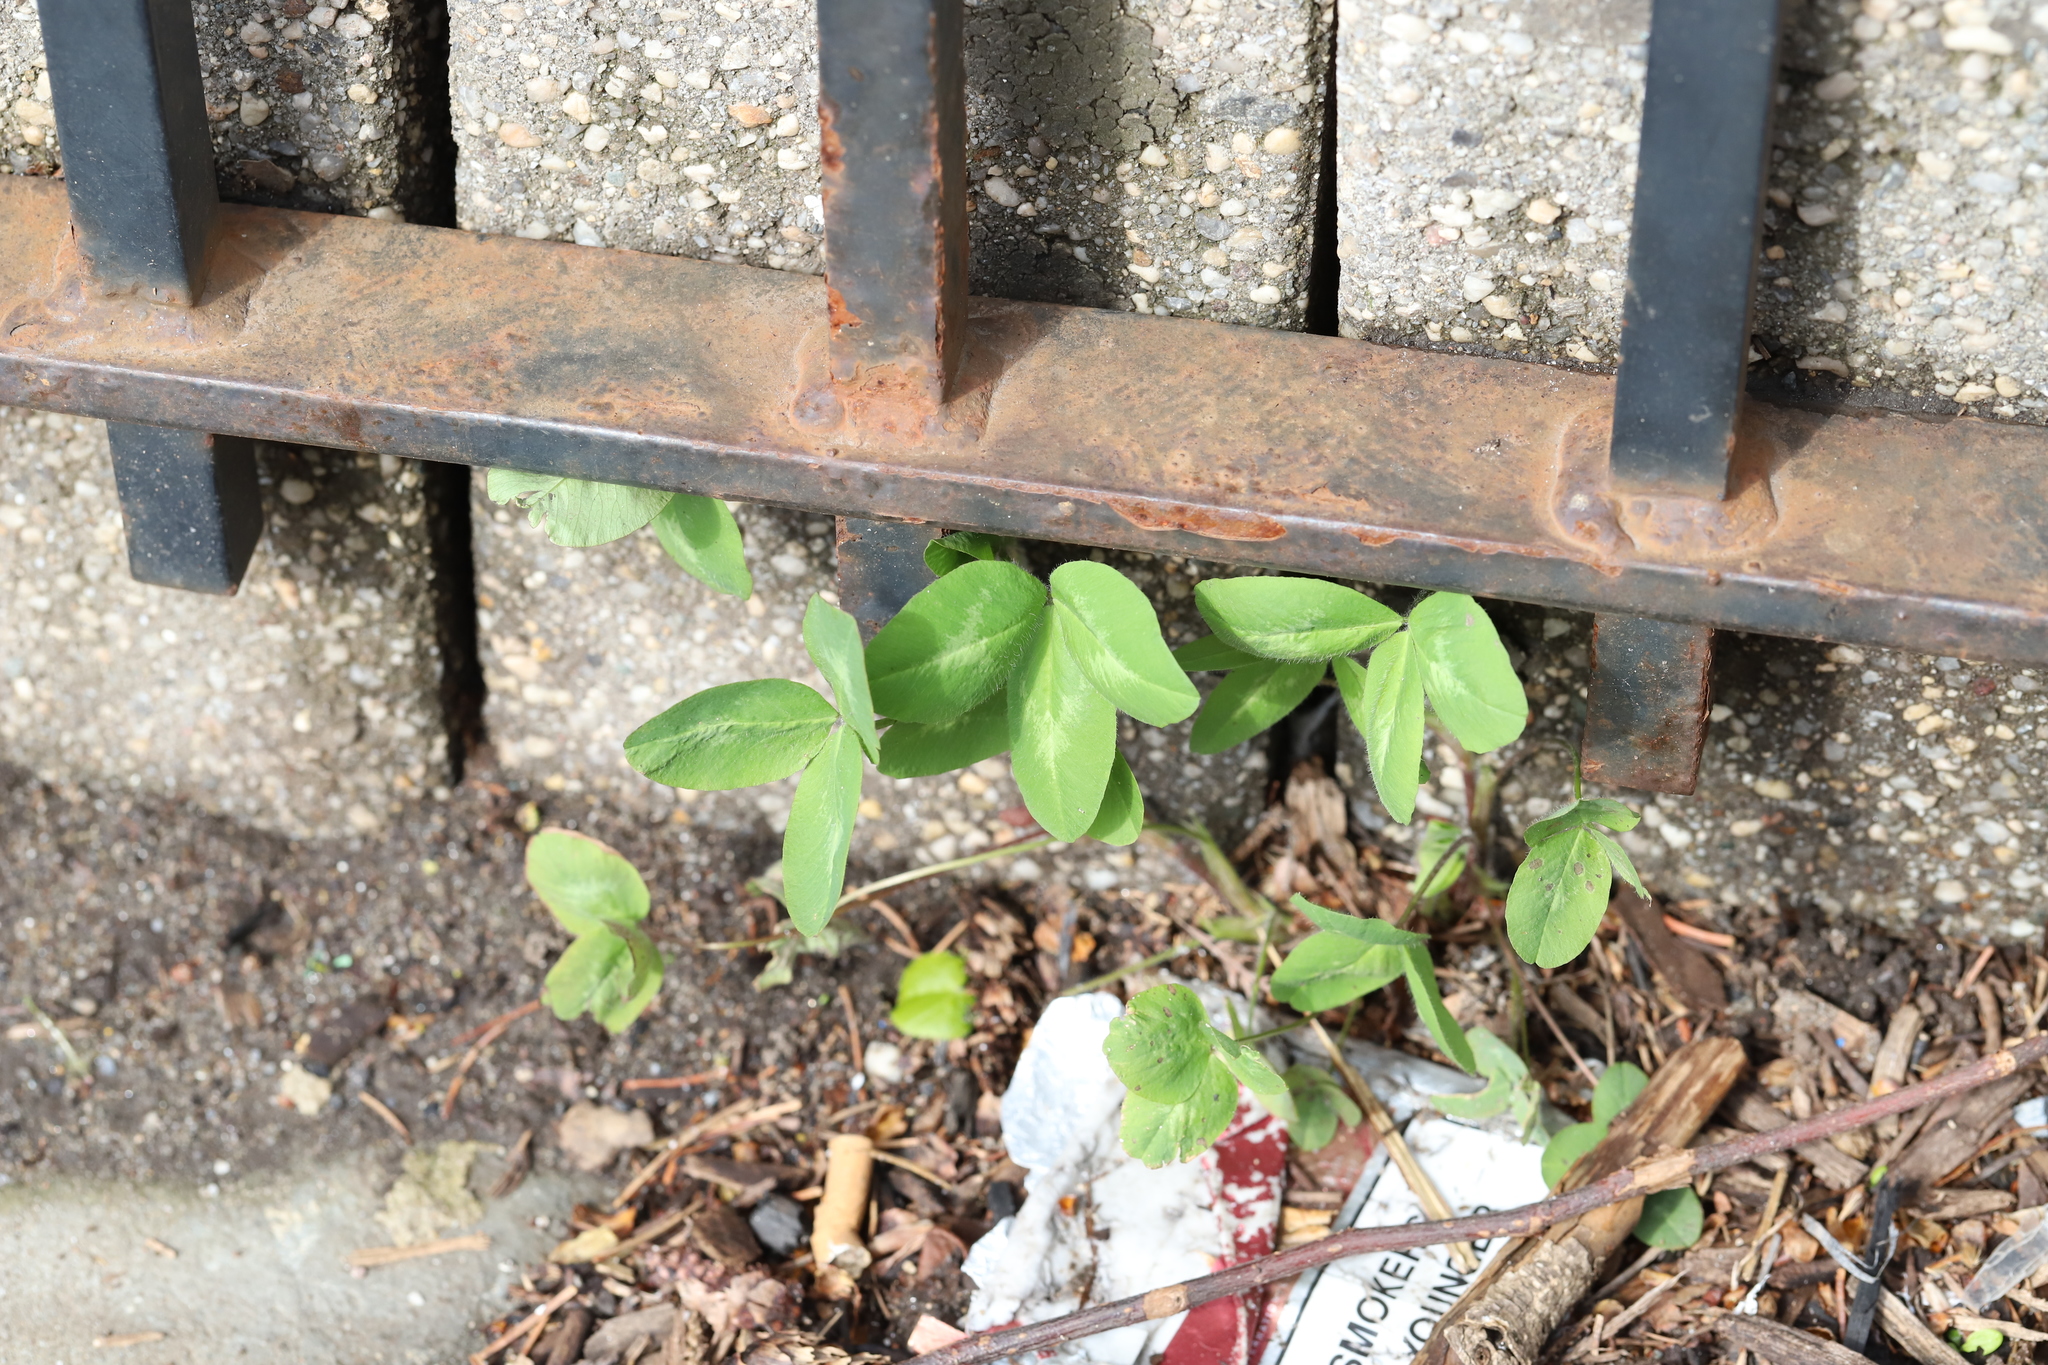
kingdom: Plantae
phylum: Tracheophyta
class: Magnoliopsida
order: Fabales
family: Fabaceae
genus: Trifolium
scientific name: Trifolium pratense
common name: Red clover
